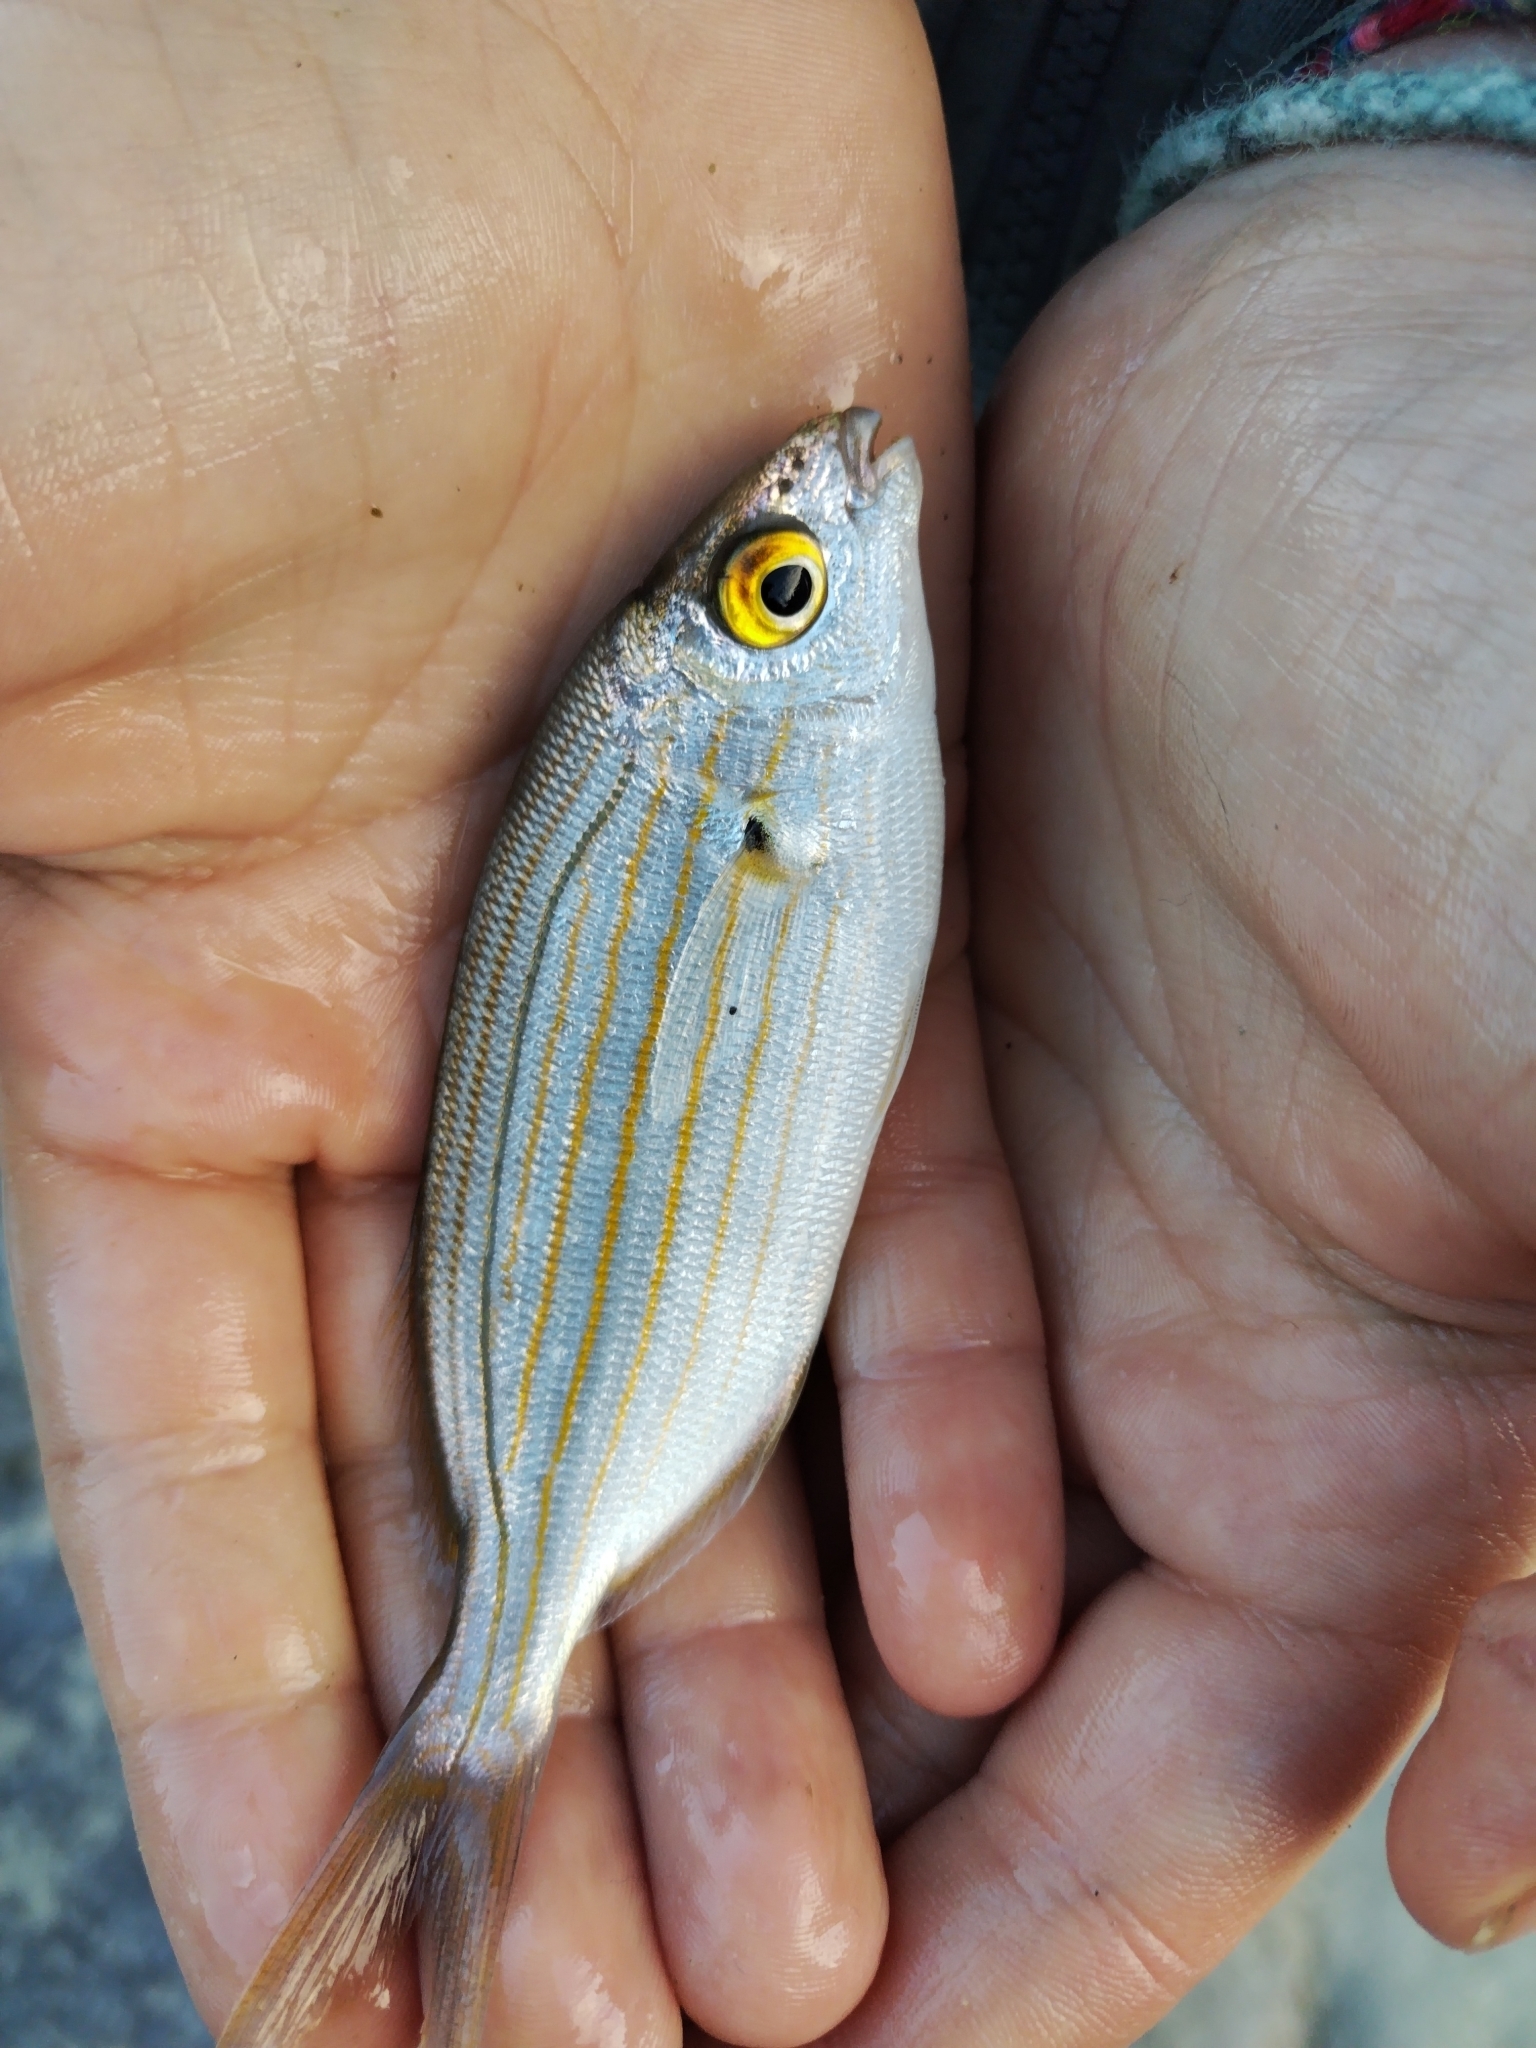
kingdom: Animalia
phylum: Chordata
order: Perciformes
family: Sparidae
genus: Sarpa
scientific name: Sarpa salpa
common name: Salema
